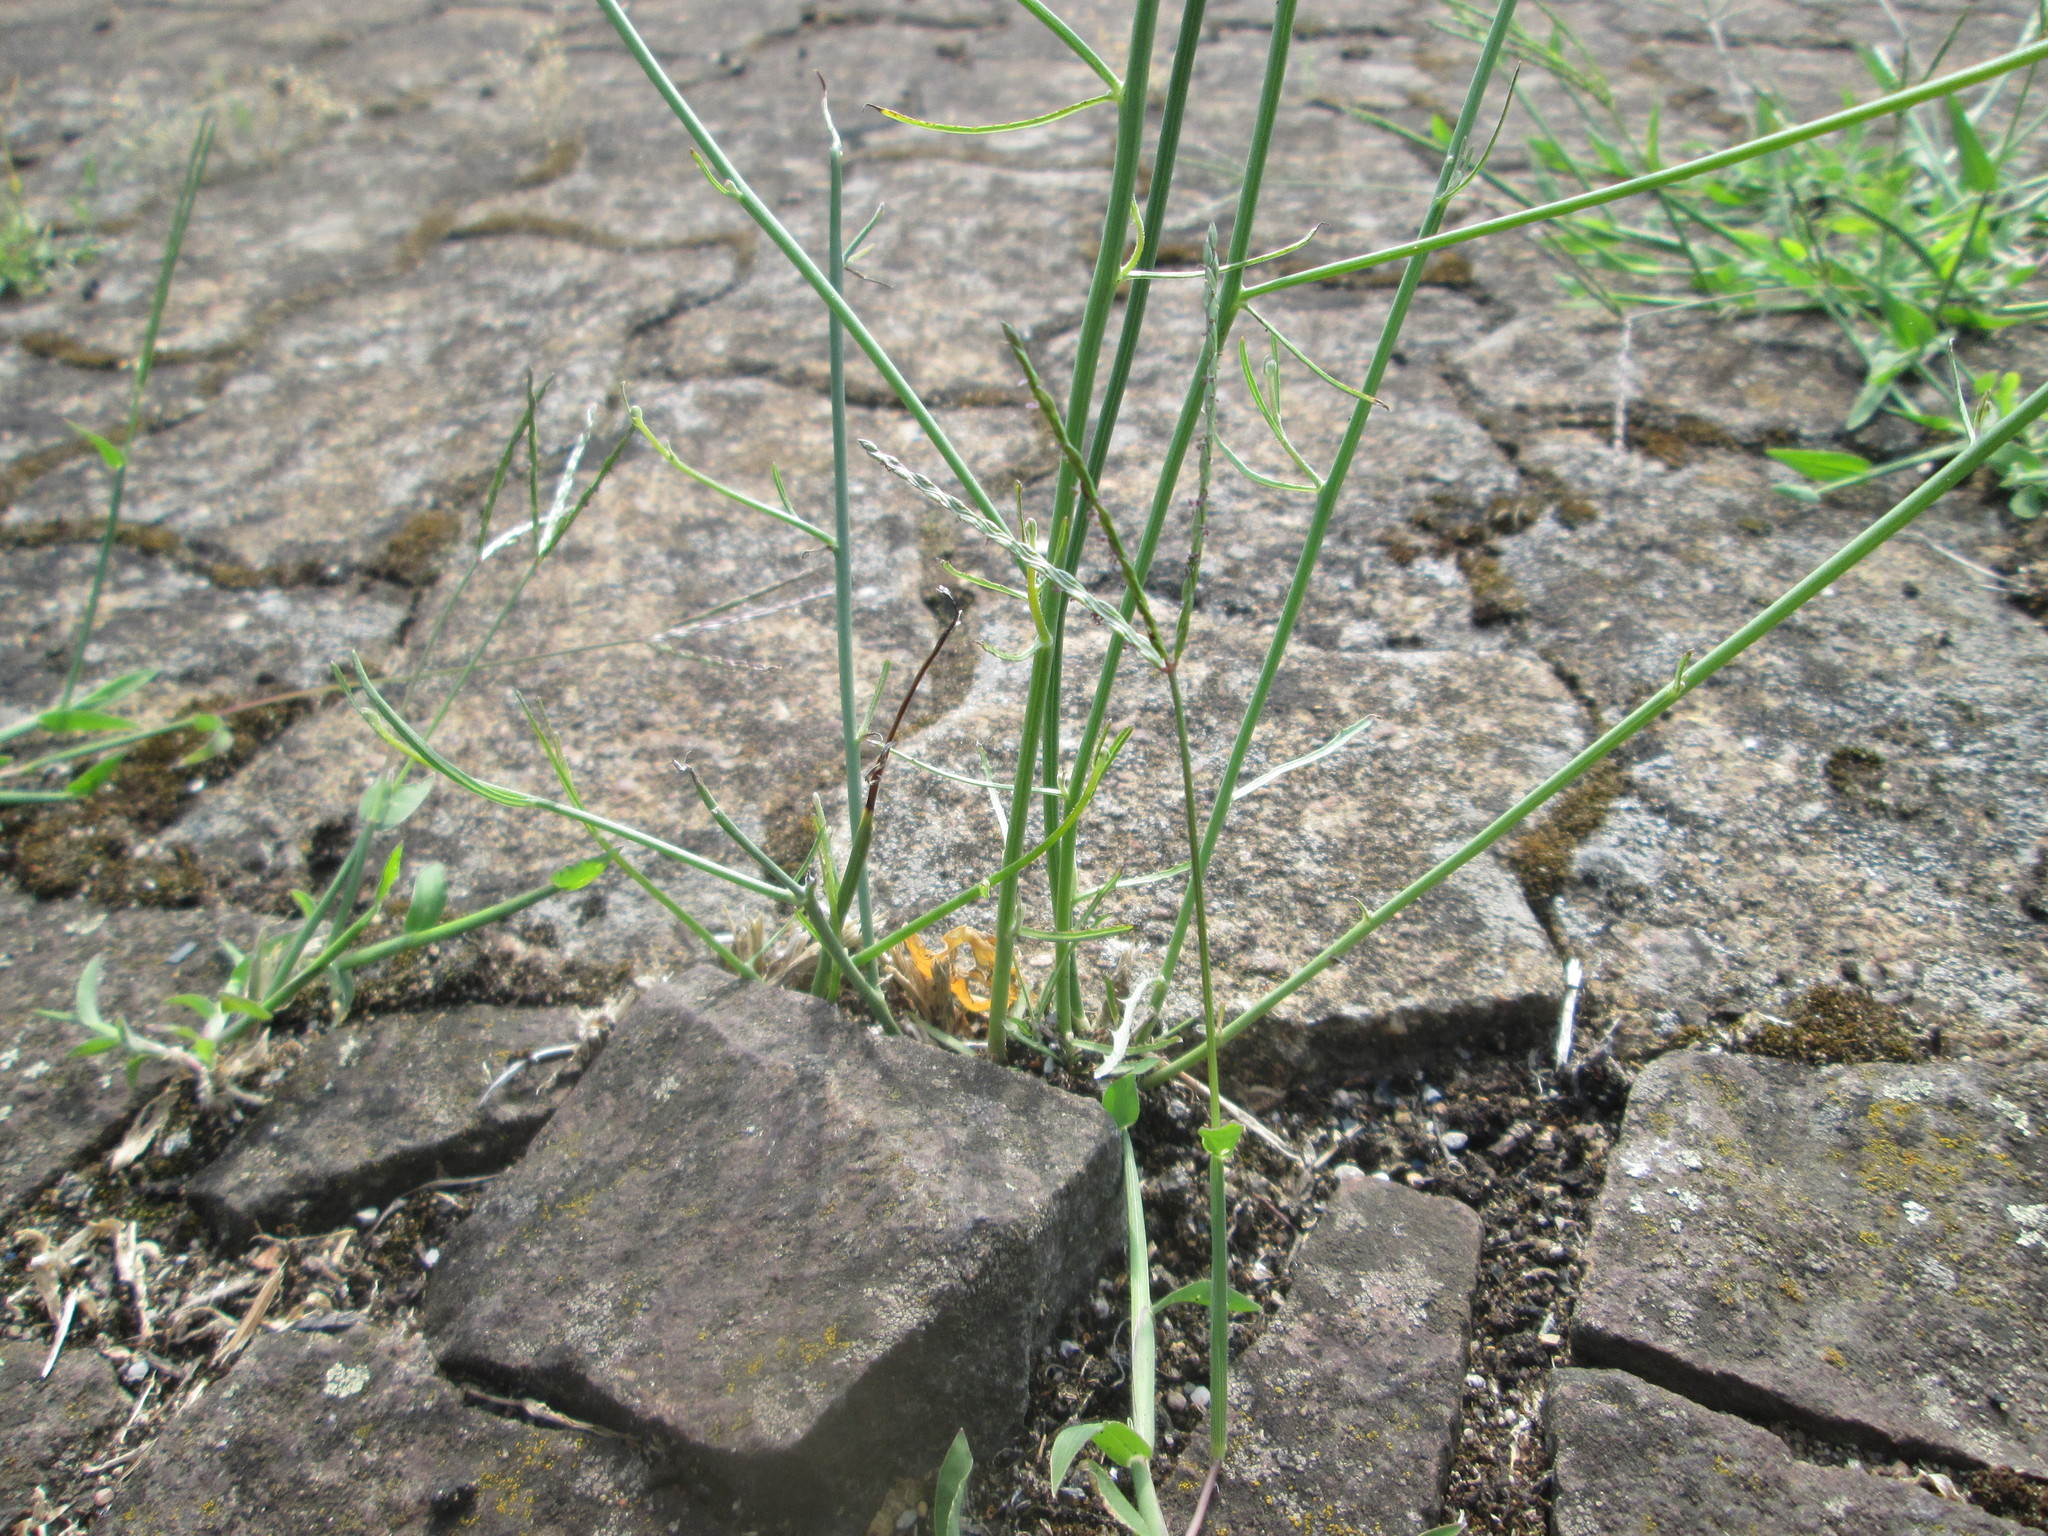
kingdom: Plantae
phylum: Tracheophyta
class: Magnoliopsida
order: Asterales
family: Asteraceae
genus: Chondrilla
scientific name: Chondrilla juncea
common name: Skeleton weed
